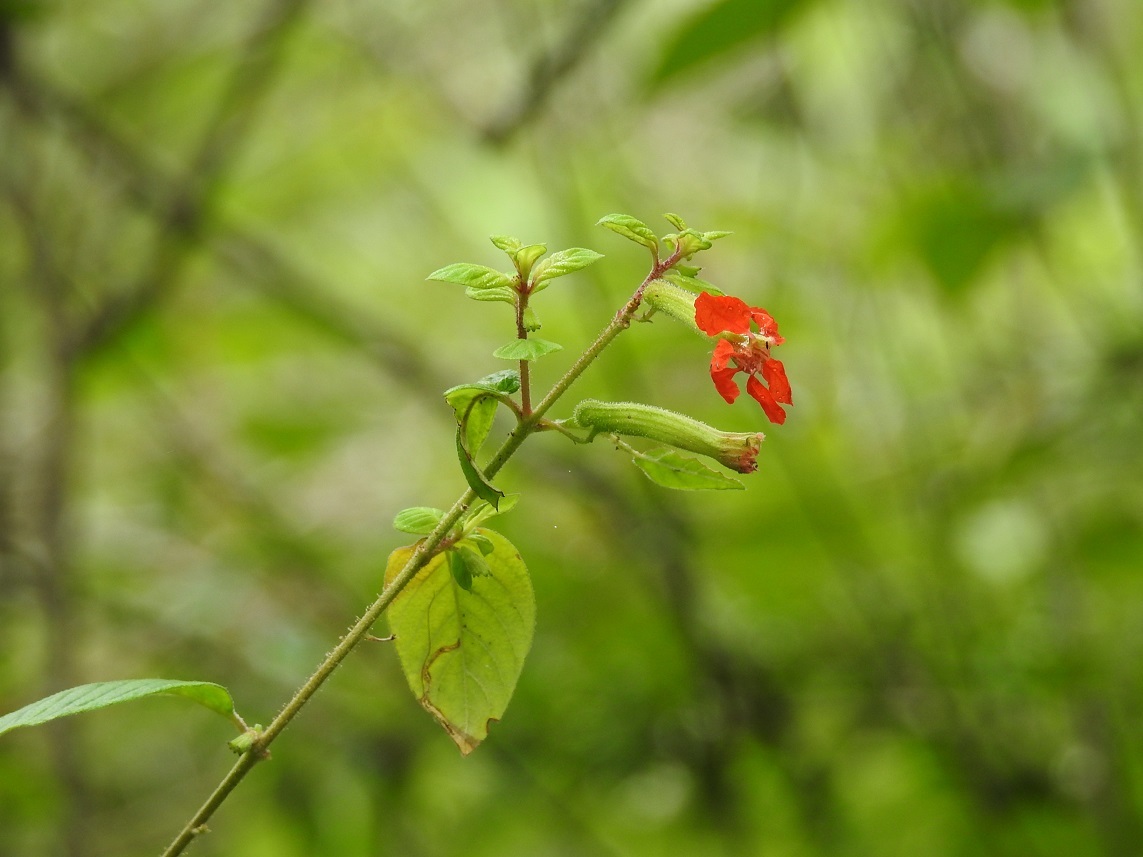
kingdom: Plantae
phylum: Tracheophyta
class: Magnoliopsida
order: Myrtales
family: Lythraceae
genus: Cuphea
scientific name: Cuphea intermedia
